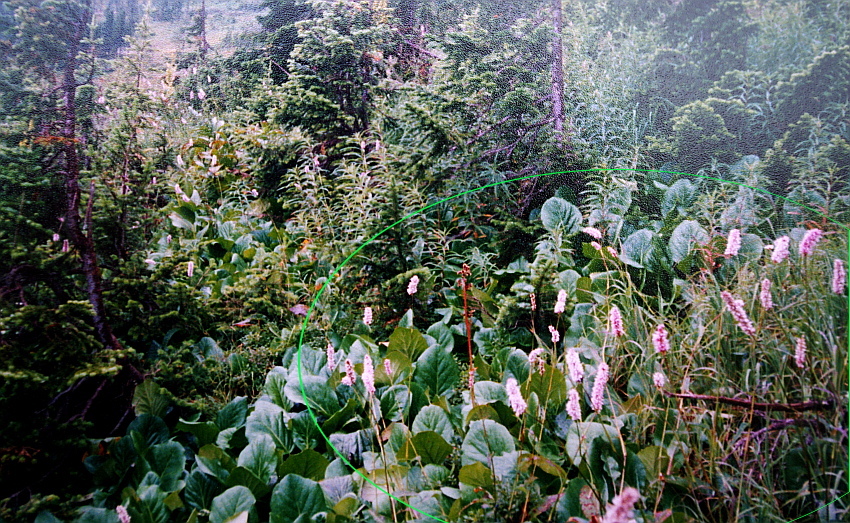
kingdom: Plantae
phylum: Tracheophyta
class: Magnoliopsida
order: Caryophyllales
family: Polygonaceae
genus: Bistorta
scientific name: Bistorta officinalis
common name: Common bistort
